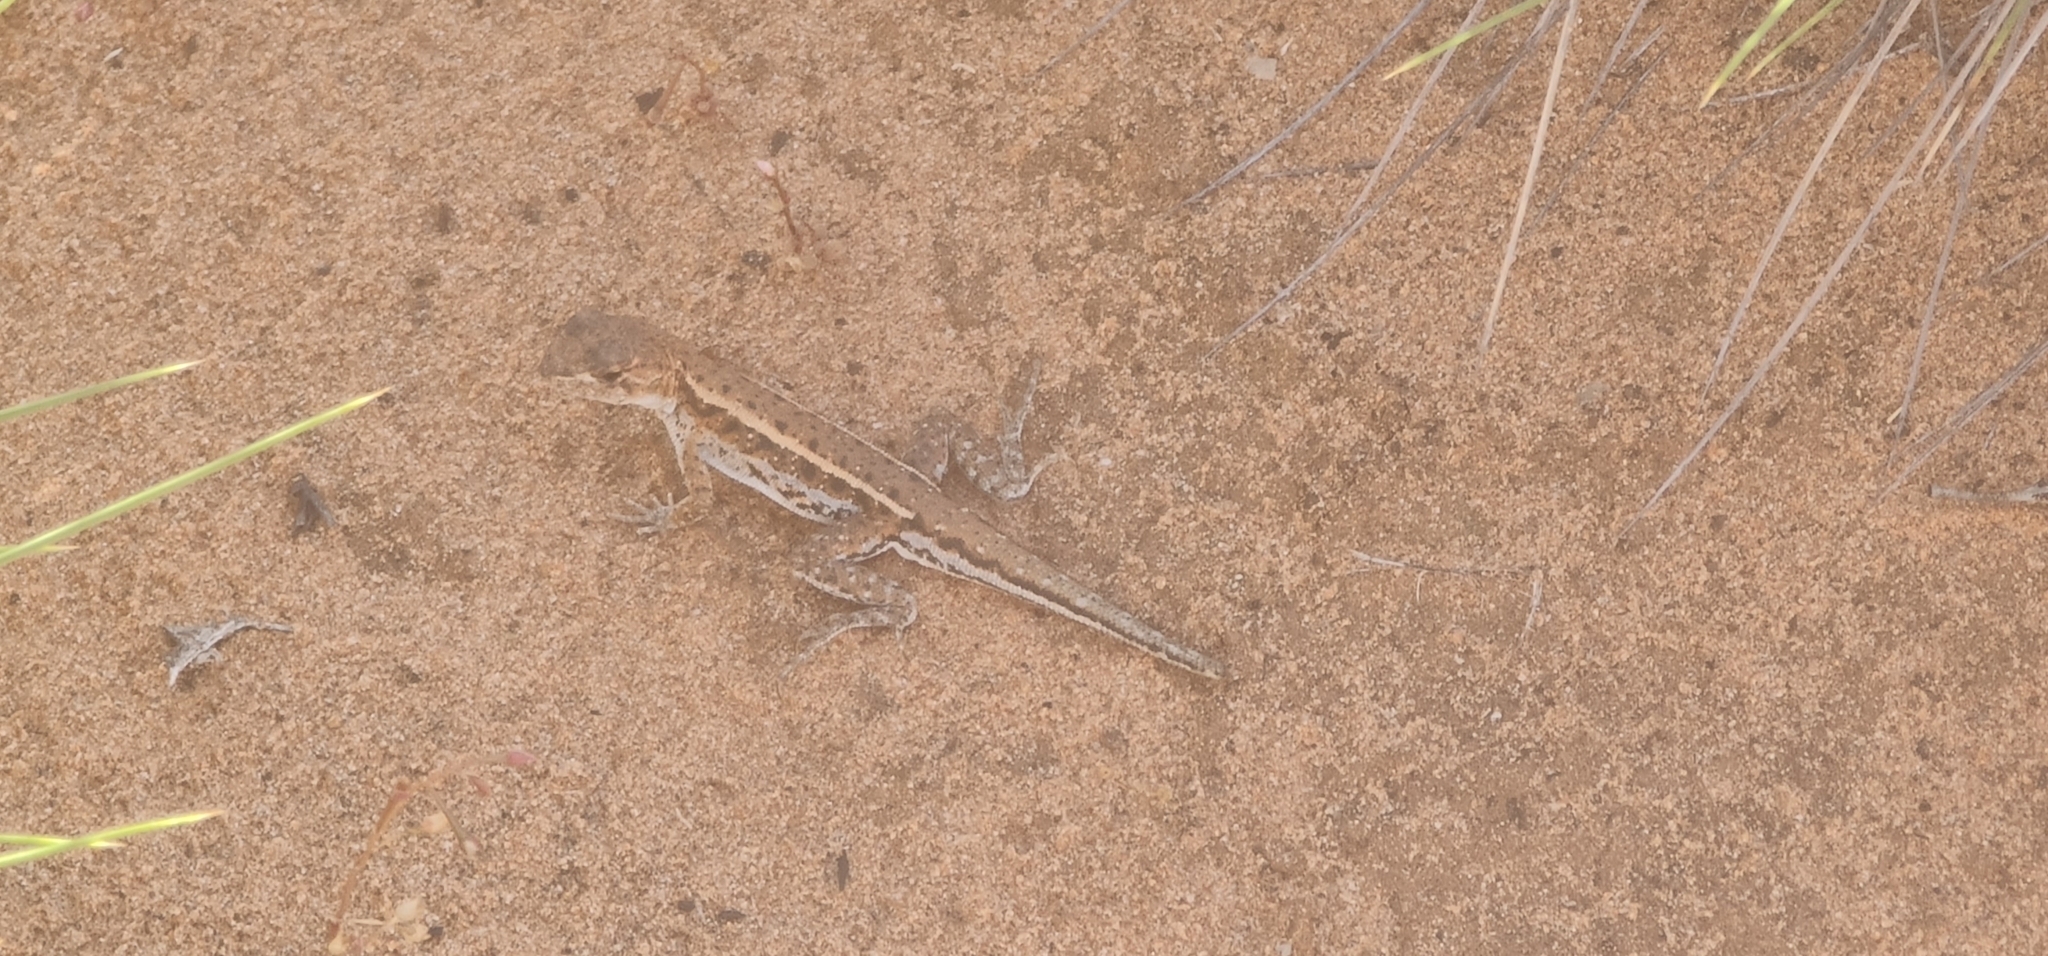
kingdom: Animalia
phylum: Chordata
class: Squamata
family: Agamidae
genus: Ctenophorus
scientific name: Ctenophorus spinodomus
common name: Eastern mallee dragon
